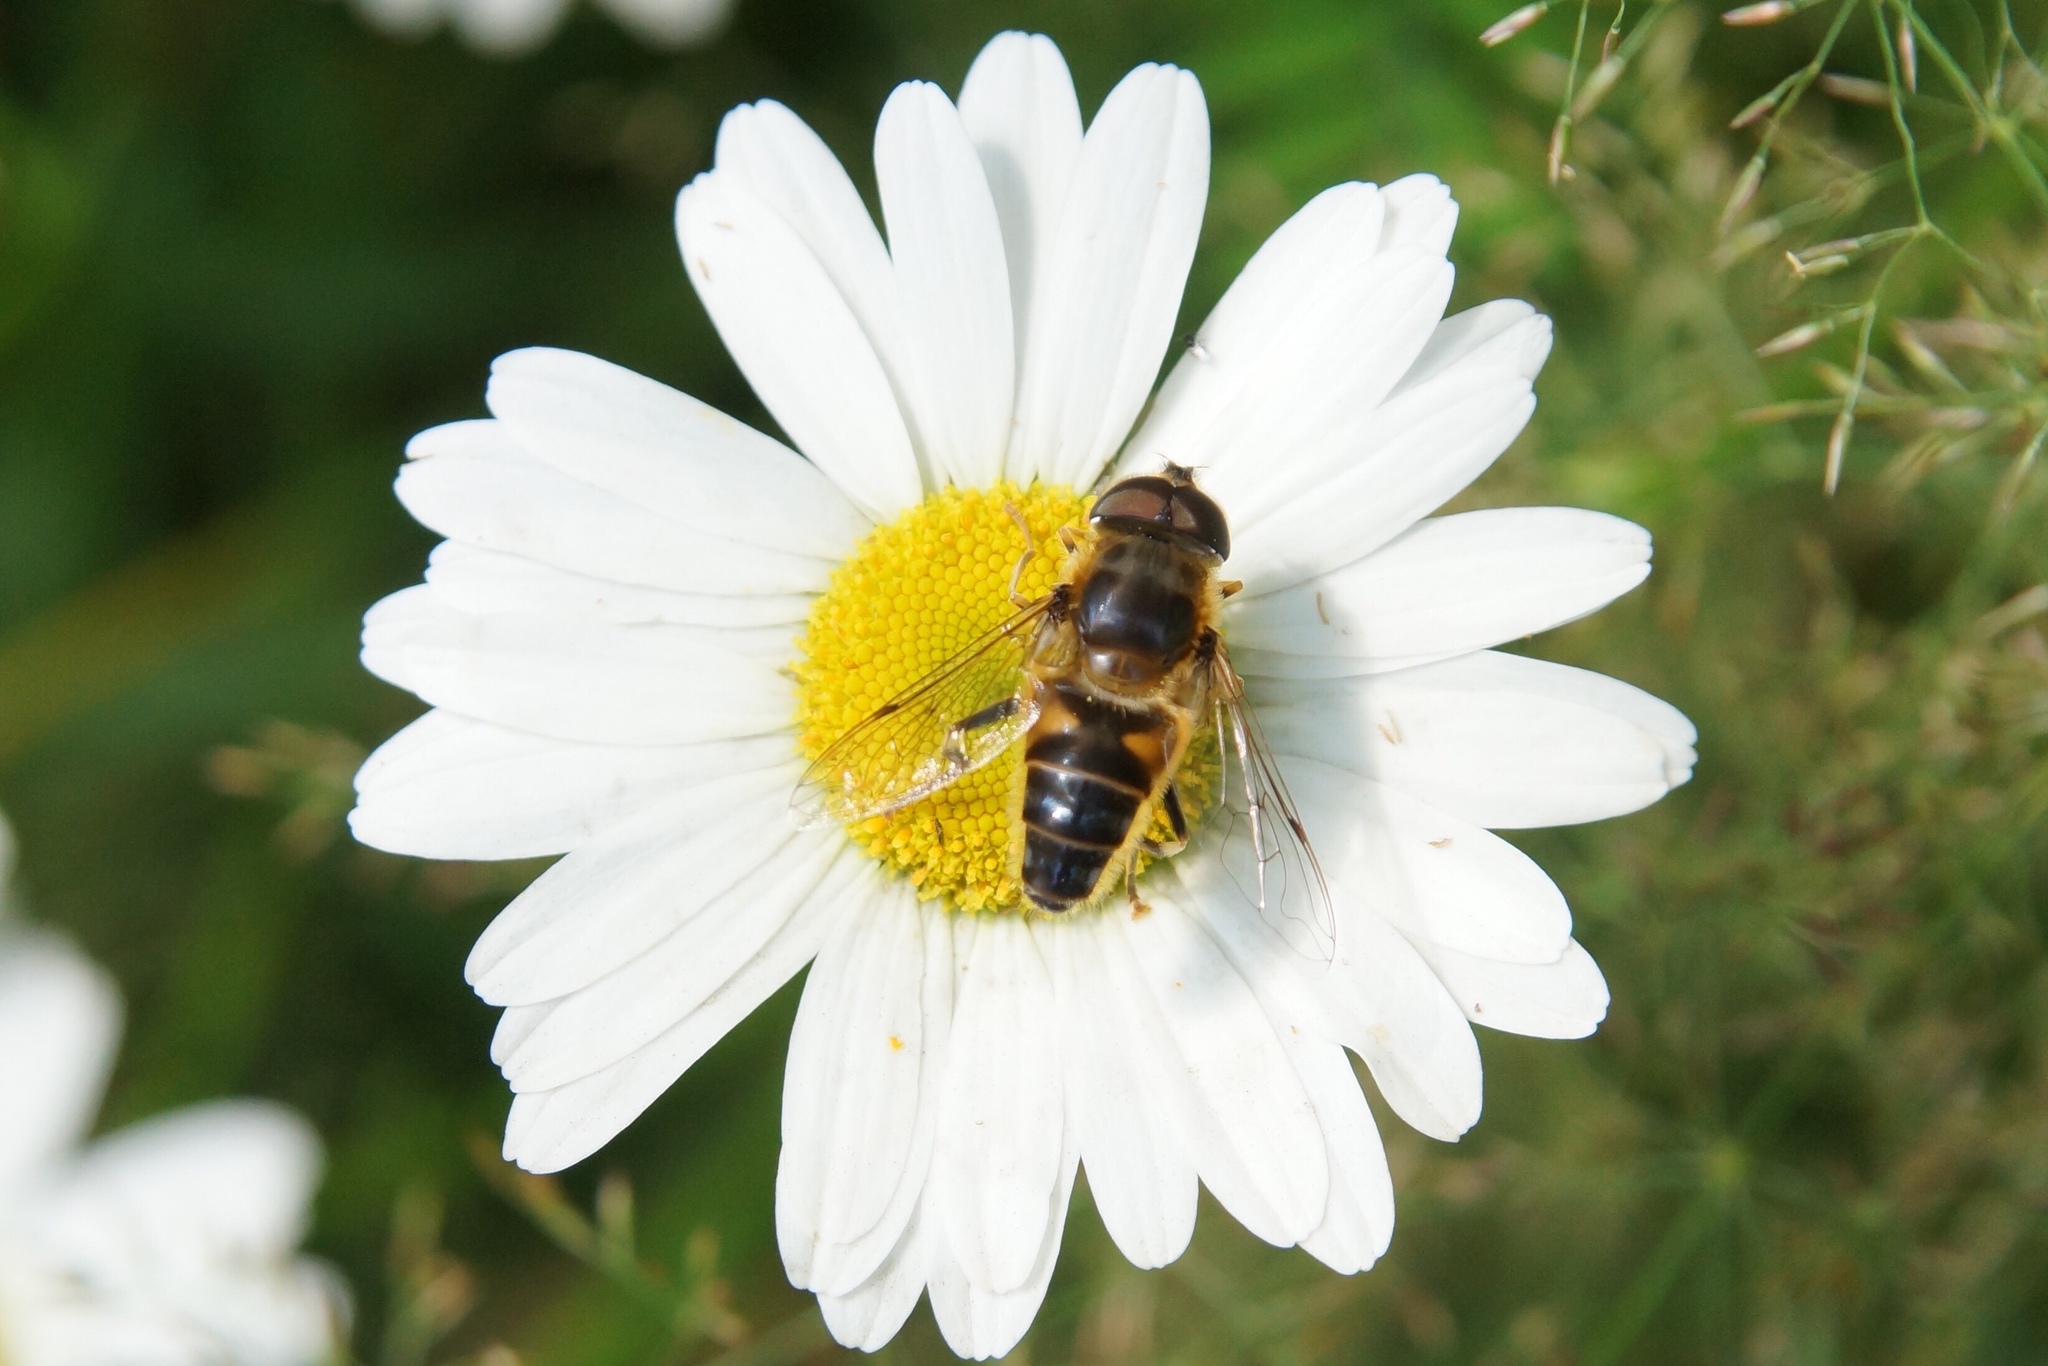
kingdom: Animalia
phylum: Arthropoda
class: Insecta
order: Diptera
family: Syrphidae
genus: Eristalis
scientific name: Eristalis pertinax
